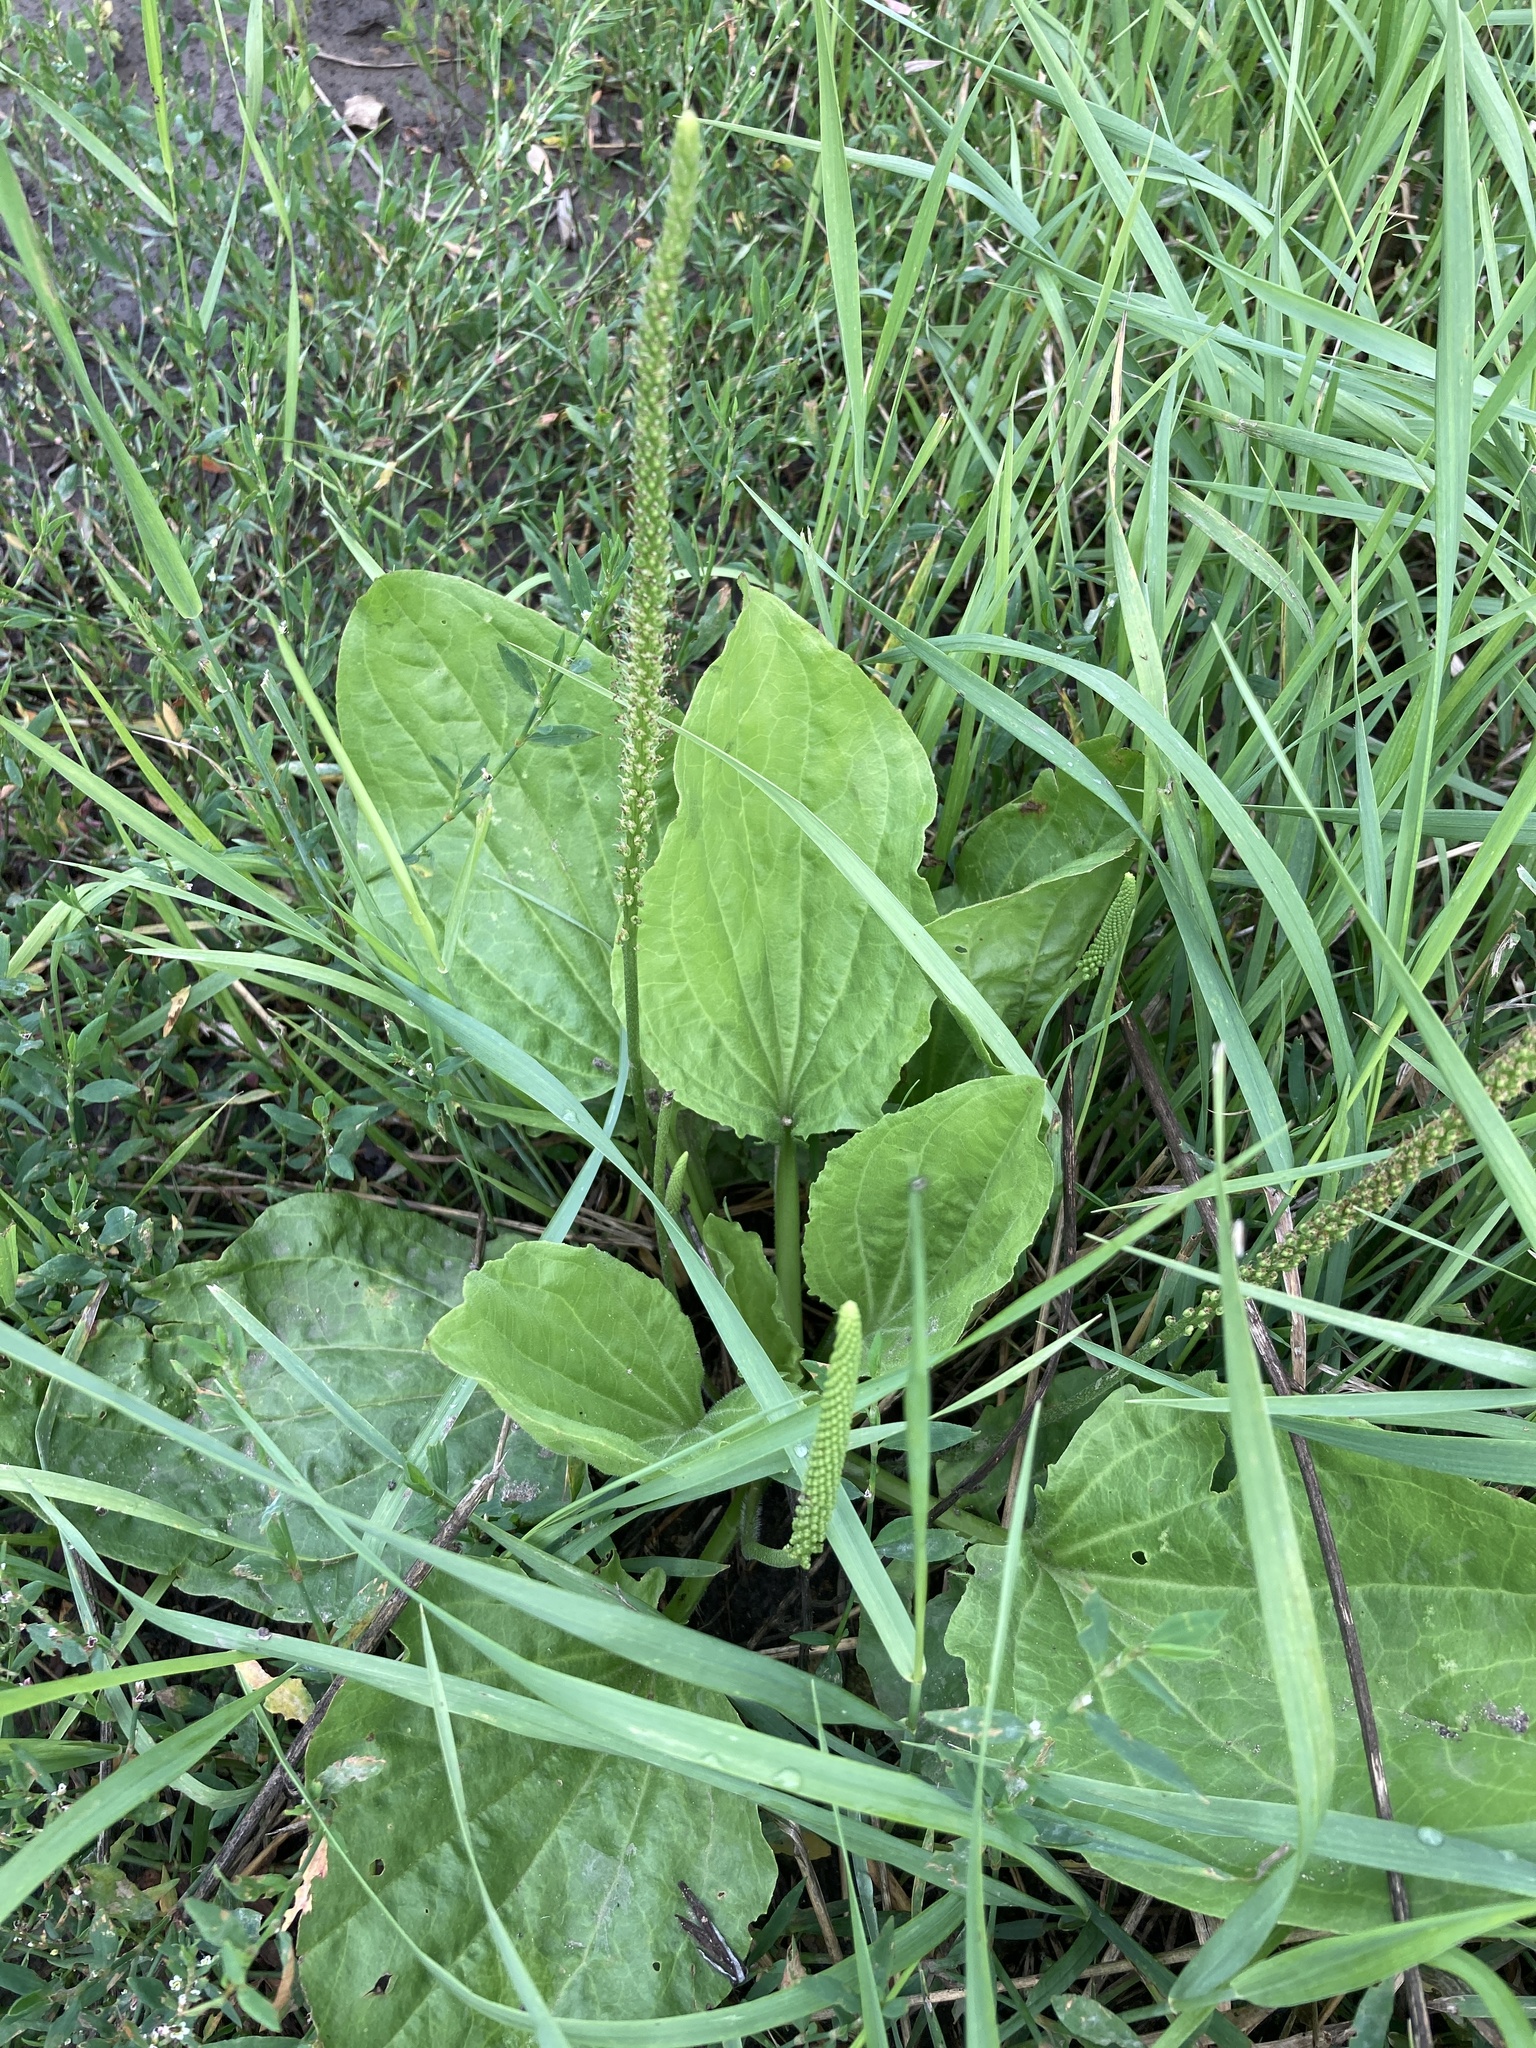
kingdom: Plantae
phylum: Tracheophyta
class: Magnoliopsida
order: Lamiales
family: Plantaginaceae
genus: Plantago
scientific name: Plantago major
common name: Common plantain
